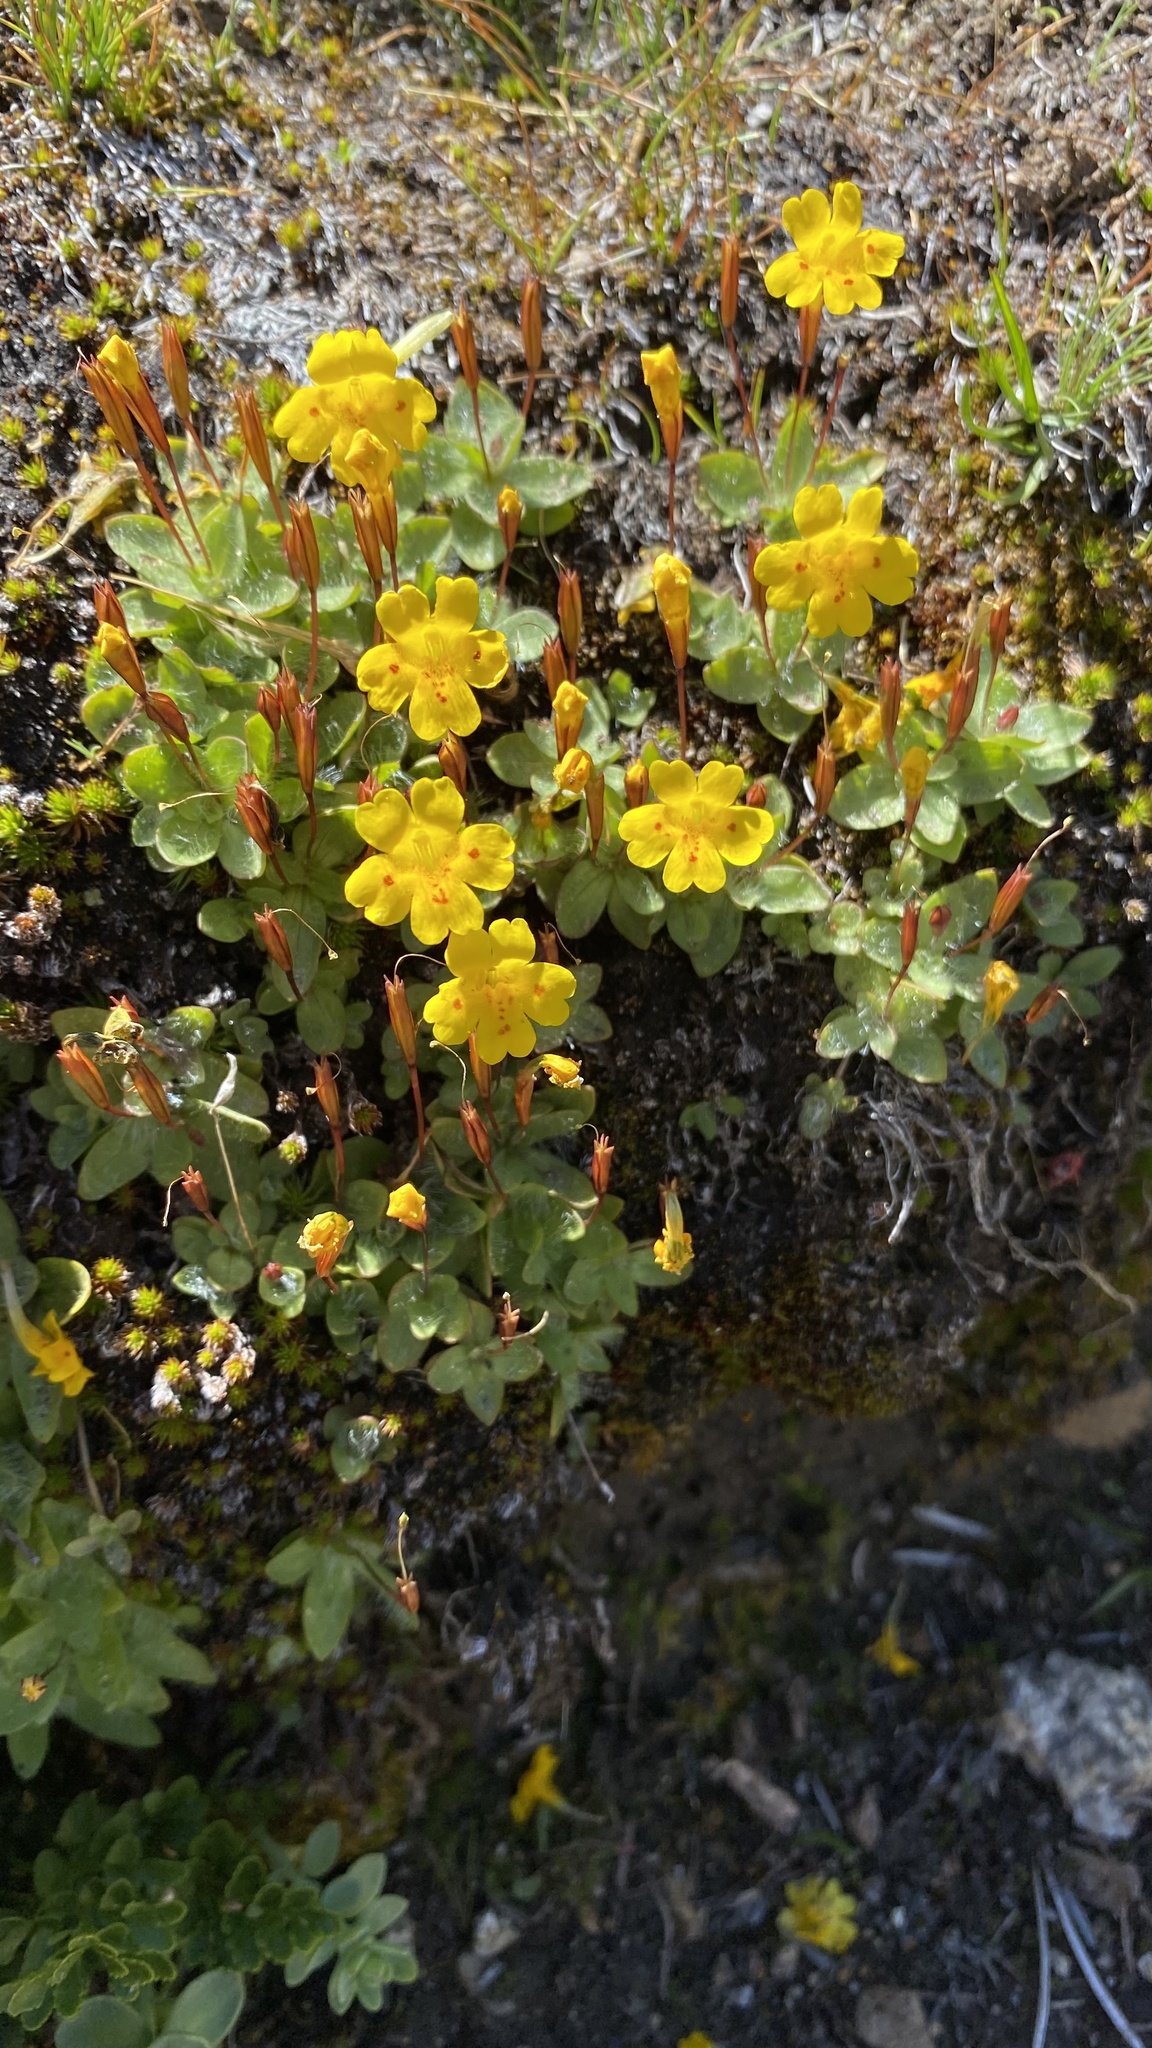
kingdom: Plantae
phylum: Tracheophyta
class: Magnoliopsida
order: Lamiales
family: Phrymaceae
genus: Erythranthe
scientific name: Erythranthe primuloides
